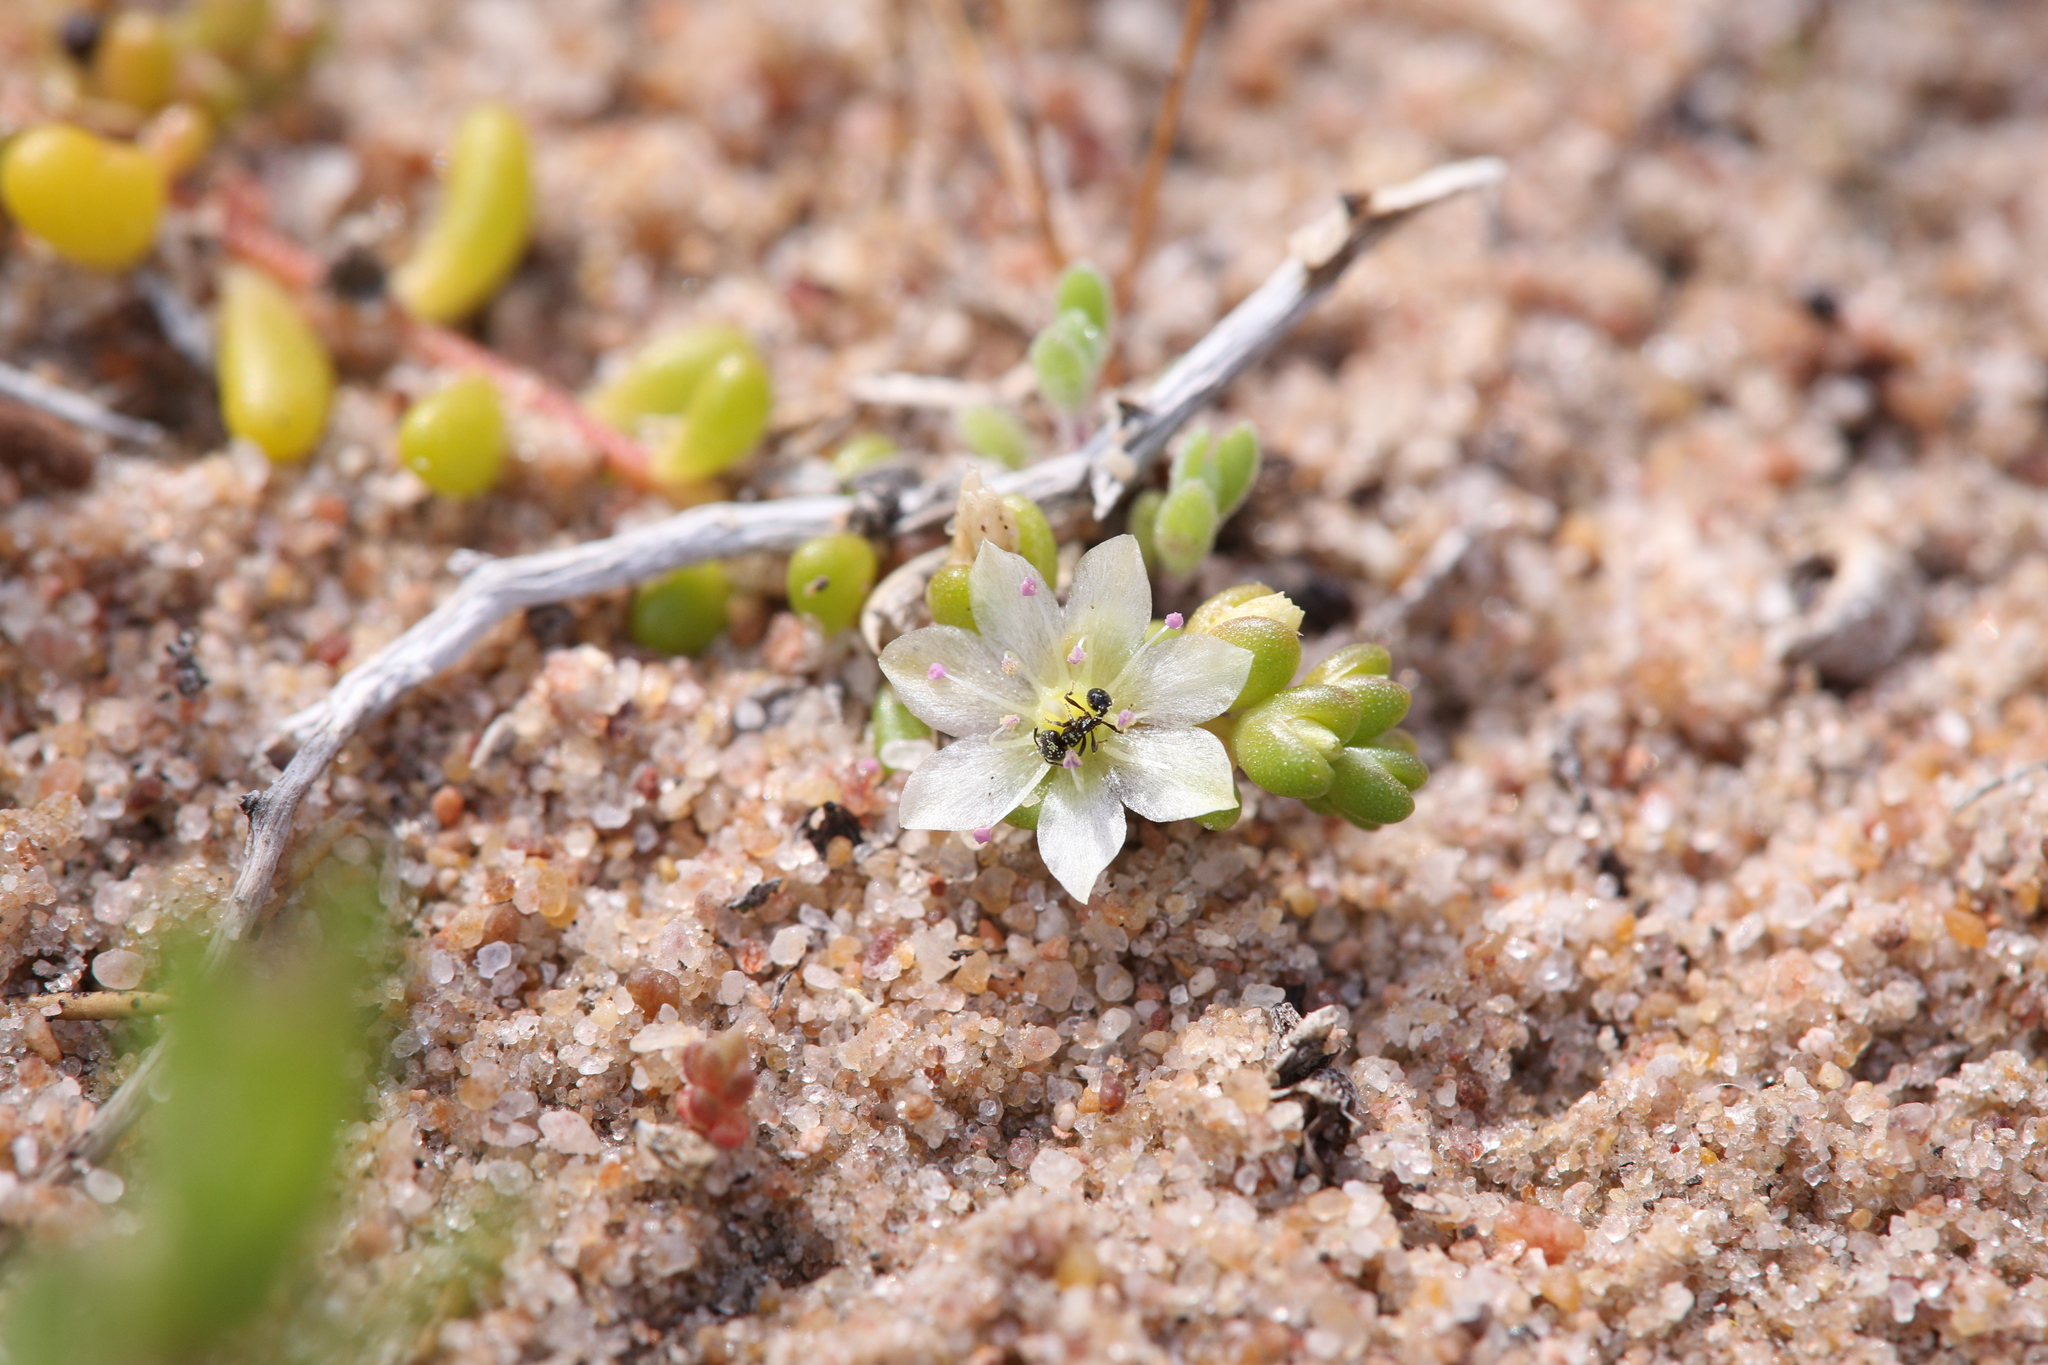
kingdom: Plantae
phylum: Tracheophyta
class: Magnoliopsida
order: Caryophyllales
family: Montiaceae
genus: Rumicastrum
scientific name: Rumicastrum granuliferum
